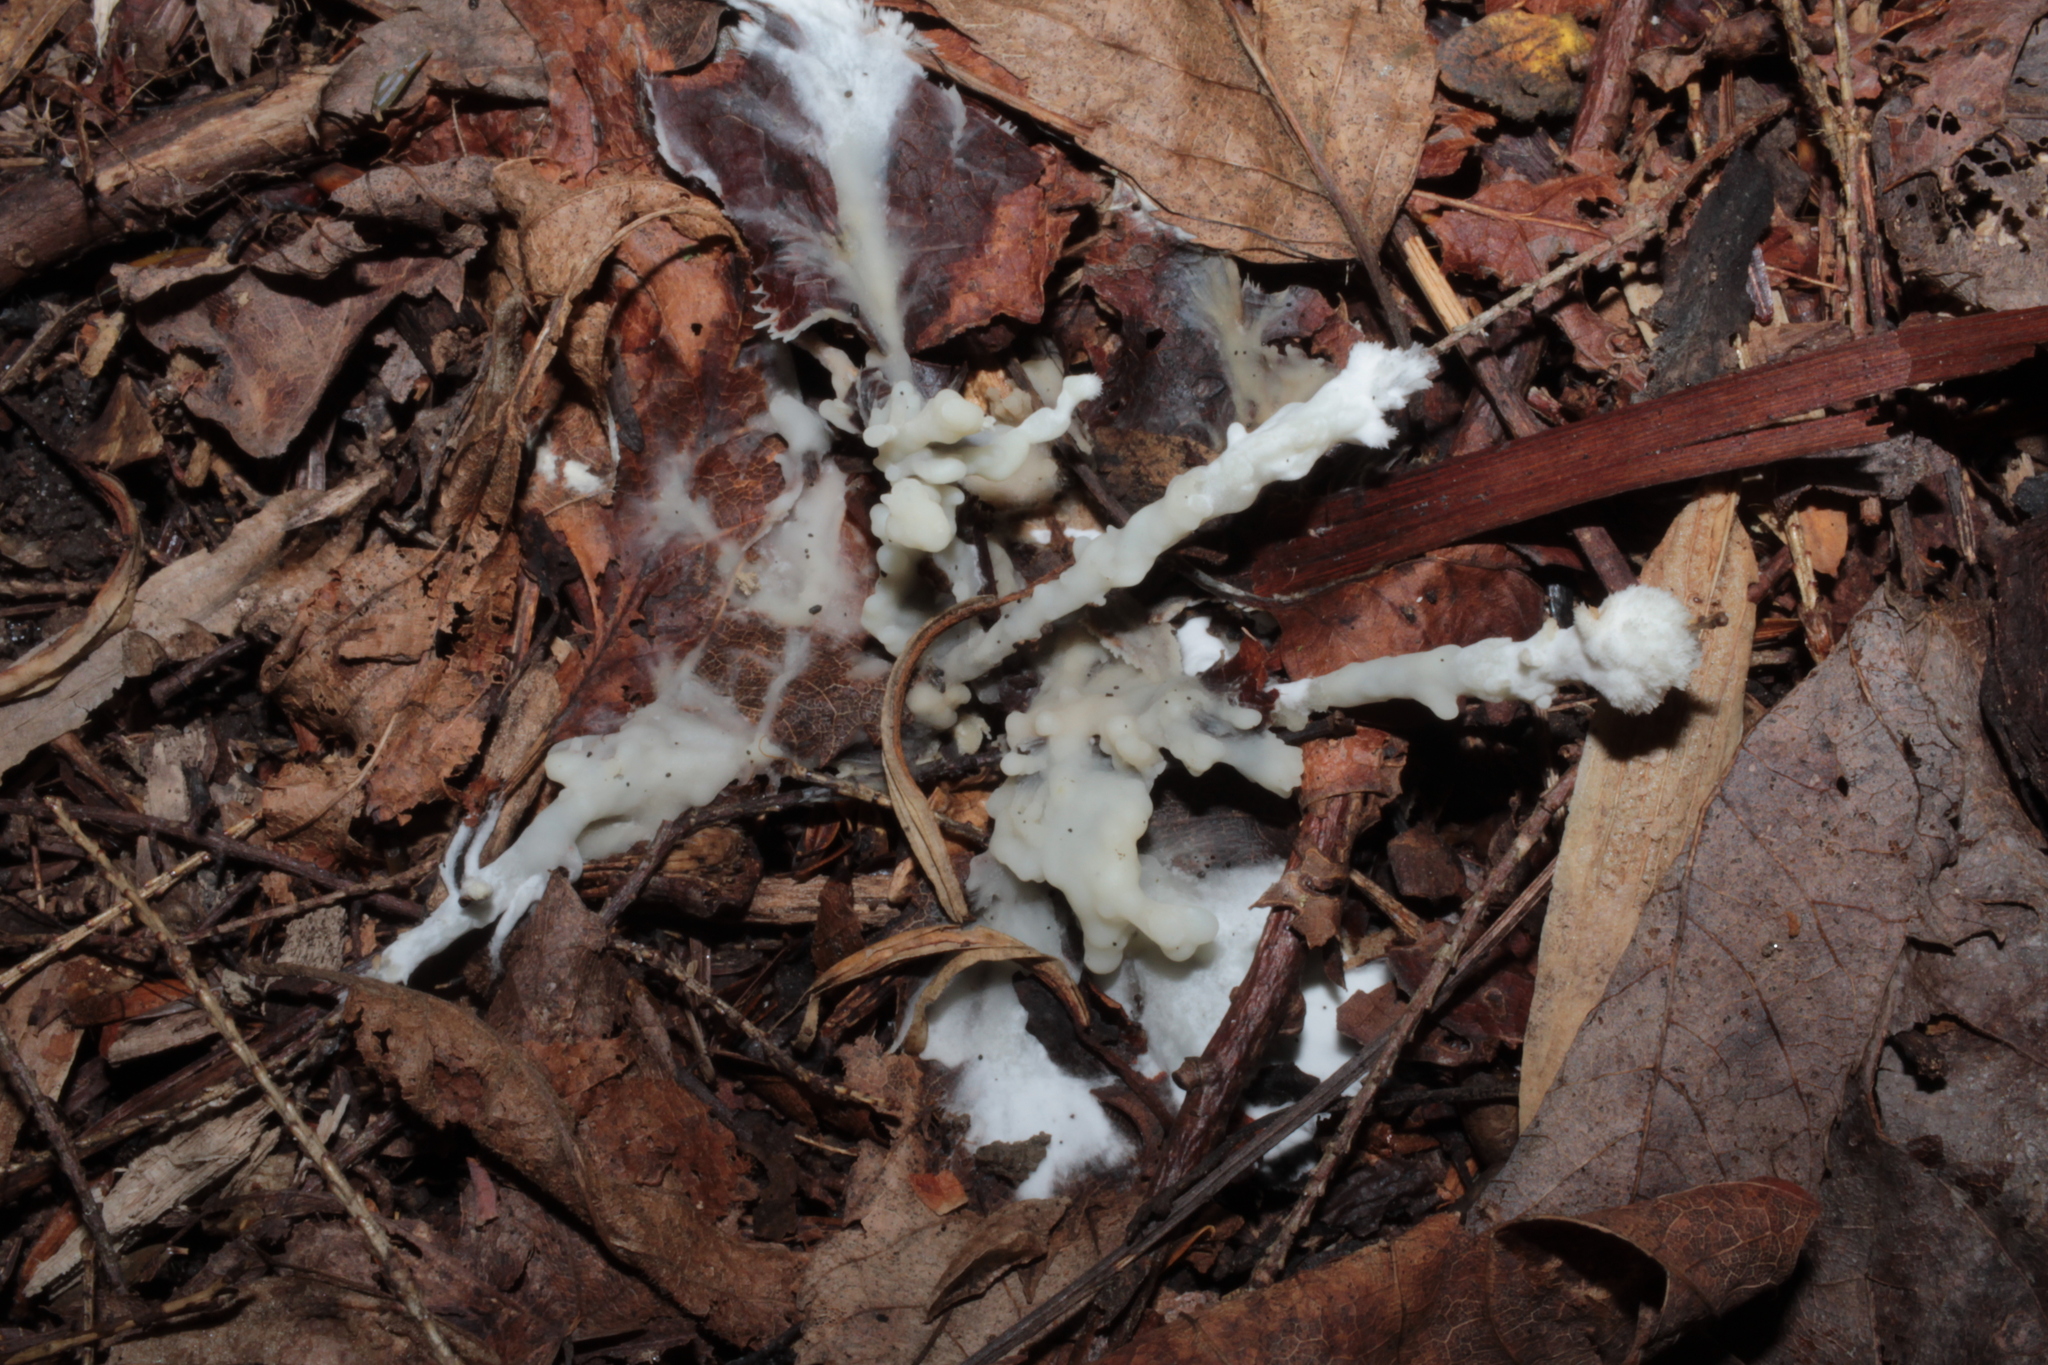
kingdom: Fungi
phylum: Basidiomycota
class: Agaricomycetes
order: Sebacinales
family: Sebacinaceae
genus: Sebacina
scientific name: Sebacina incrustans
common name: Enveloping crust
